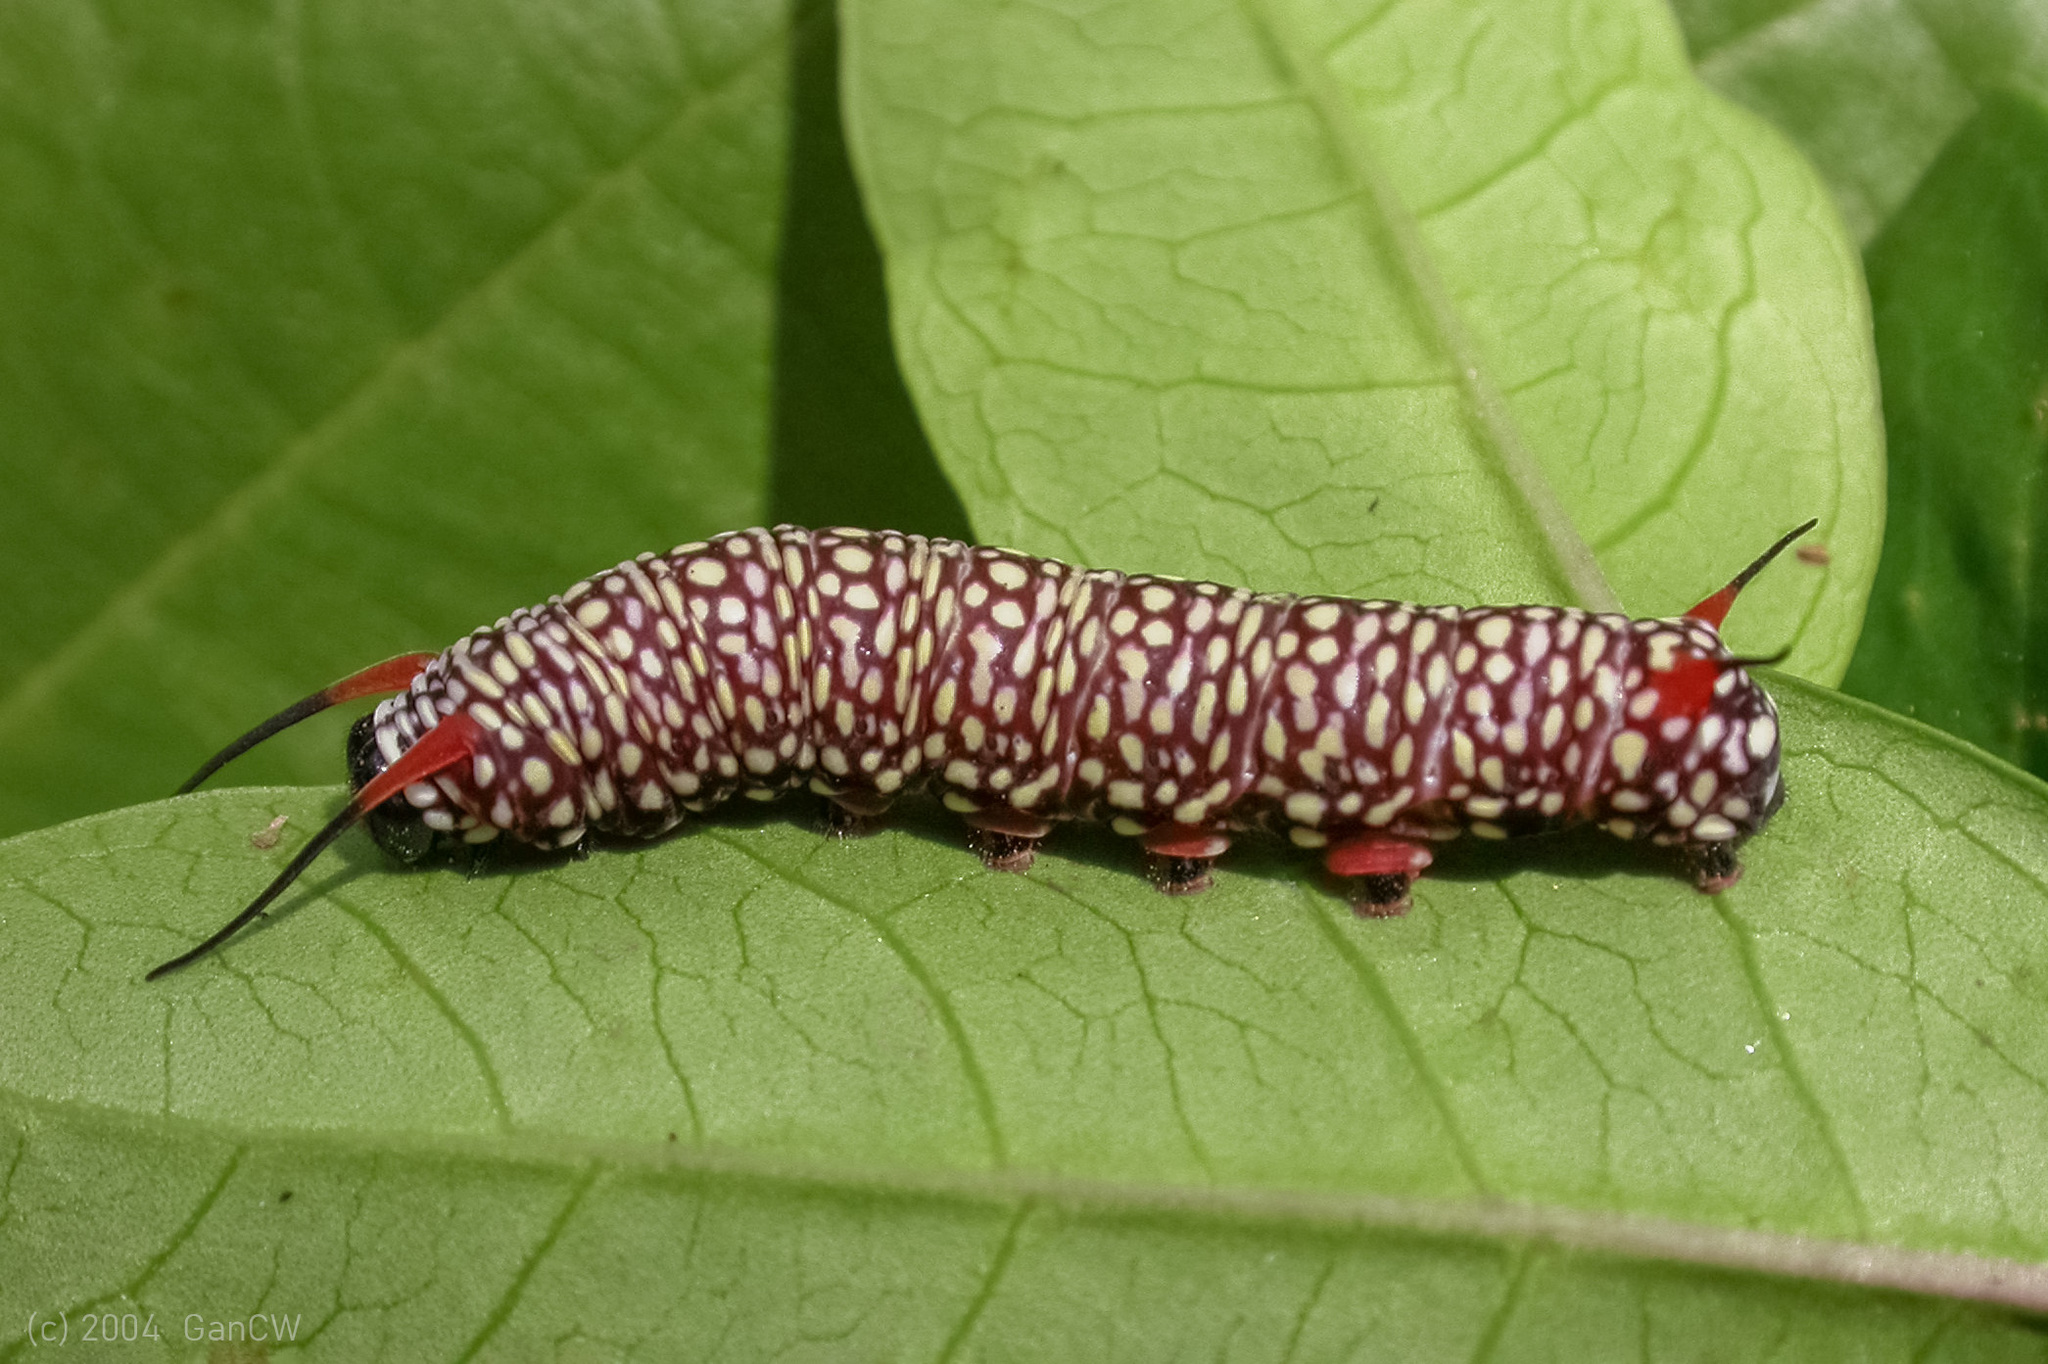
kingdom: Animalia
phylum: Arthropoda
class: Insecta
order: Lepidoptera
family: Nymphalidae
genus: Ideopsis
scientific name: Ideopsis juventa
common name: Grey glassy tiger
